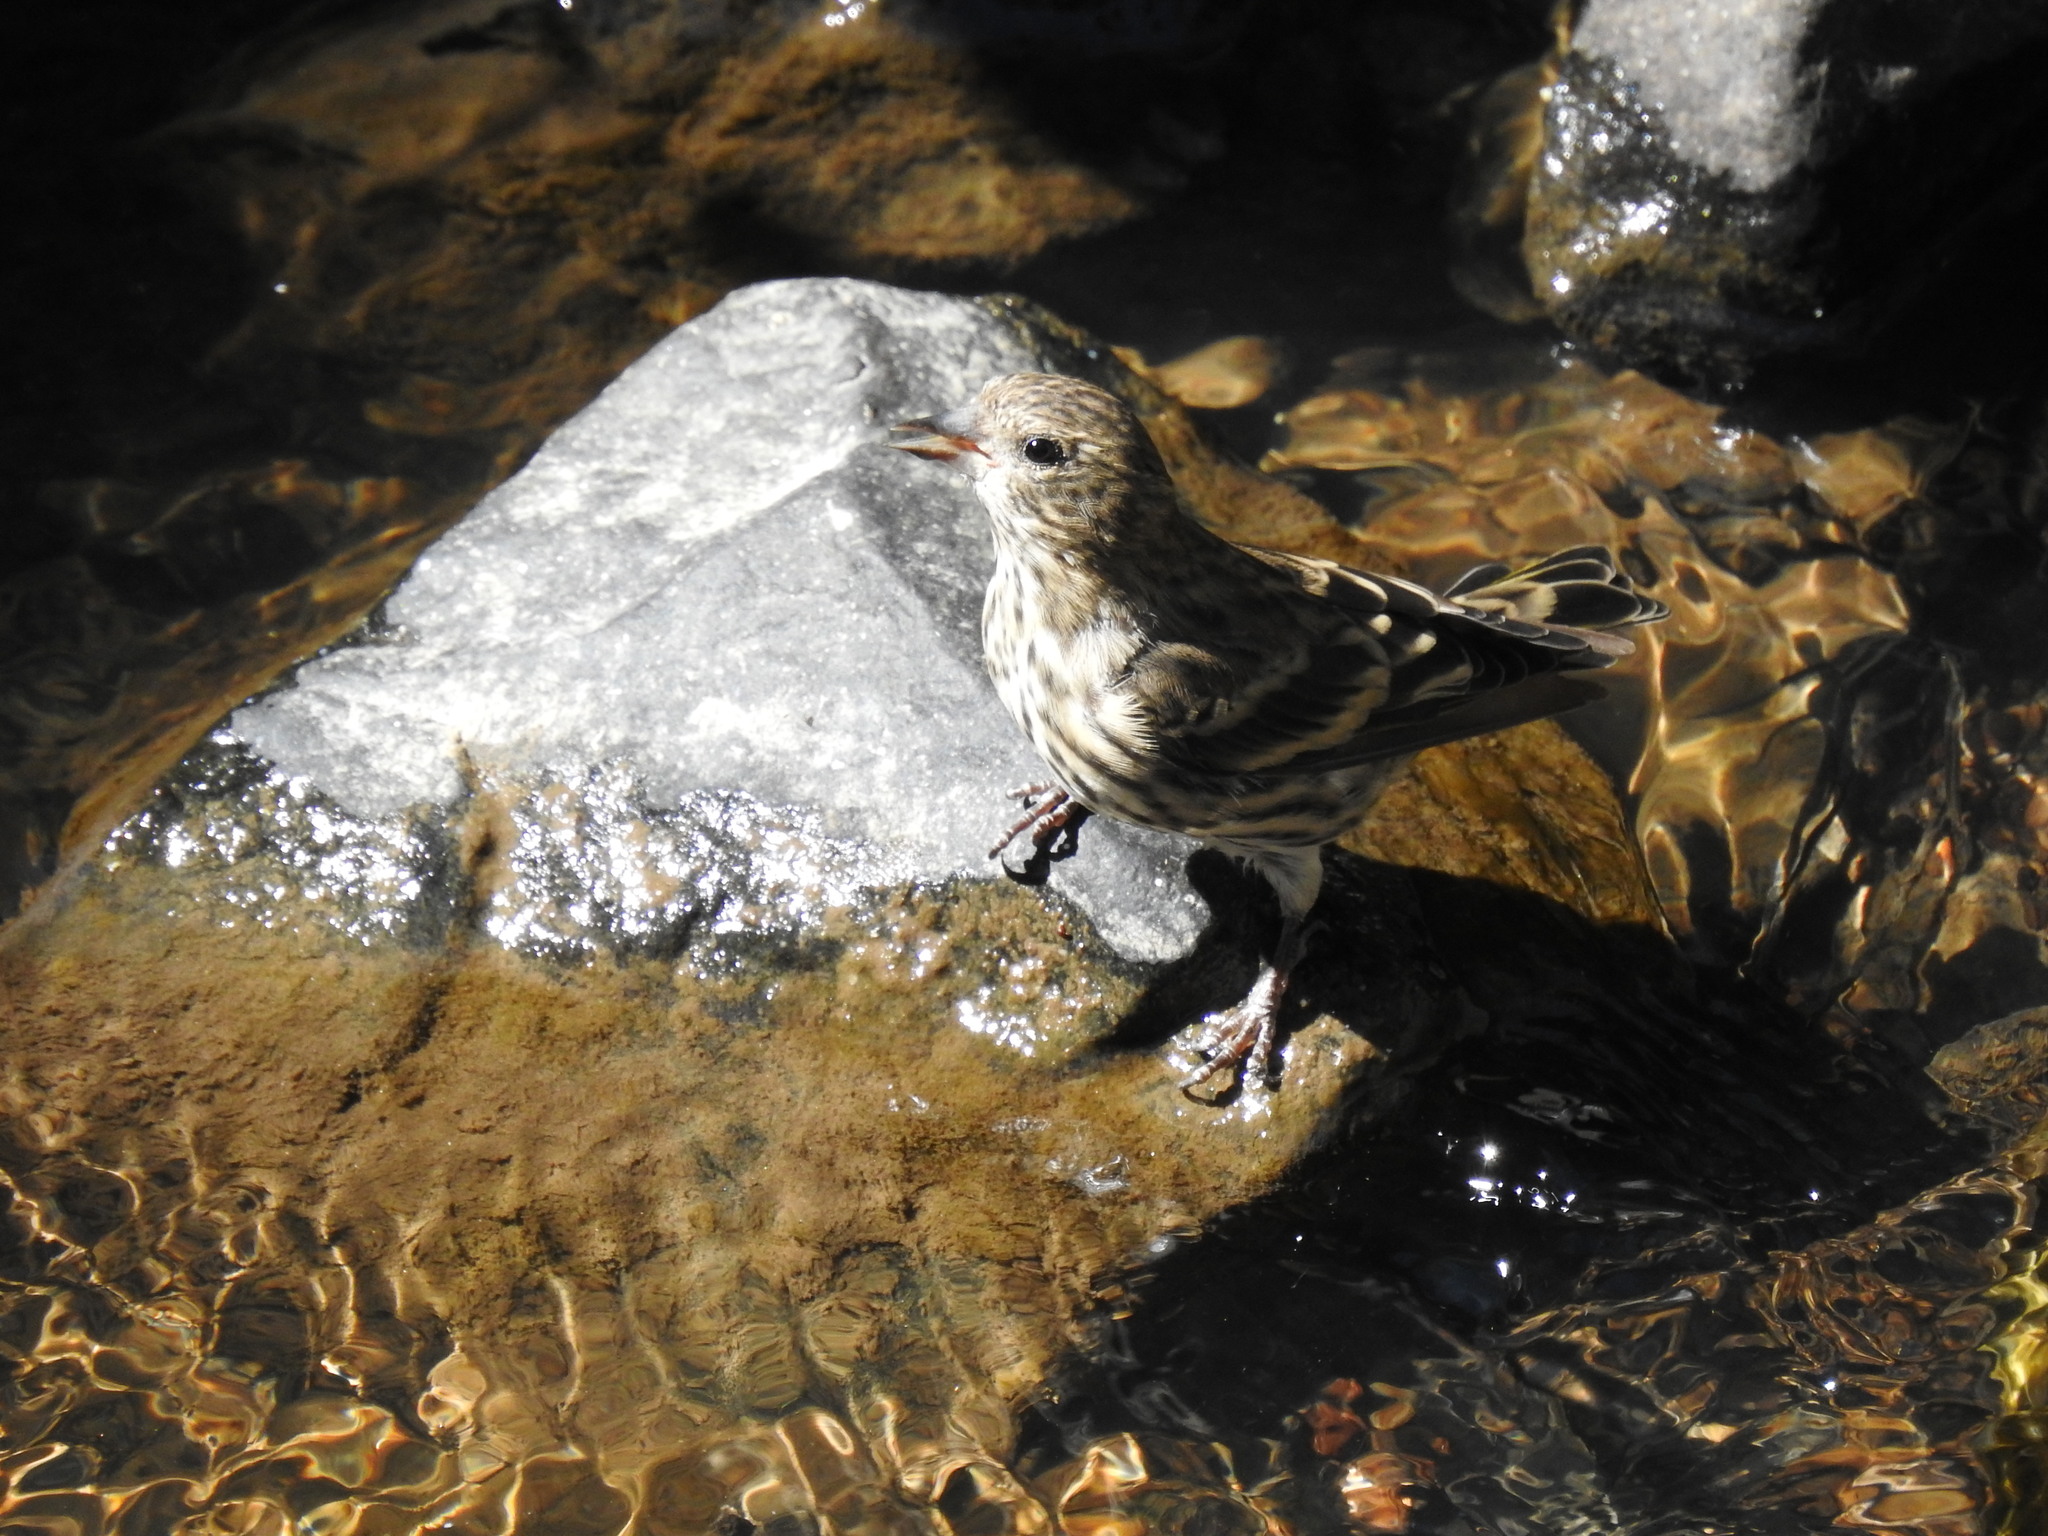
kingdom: Animalia
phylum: Chordata
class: Aves
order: Passeriformes
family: Fringillidae
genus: Spinus
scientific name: Spinus pinus
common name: Pine siskin
